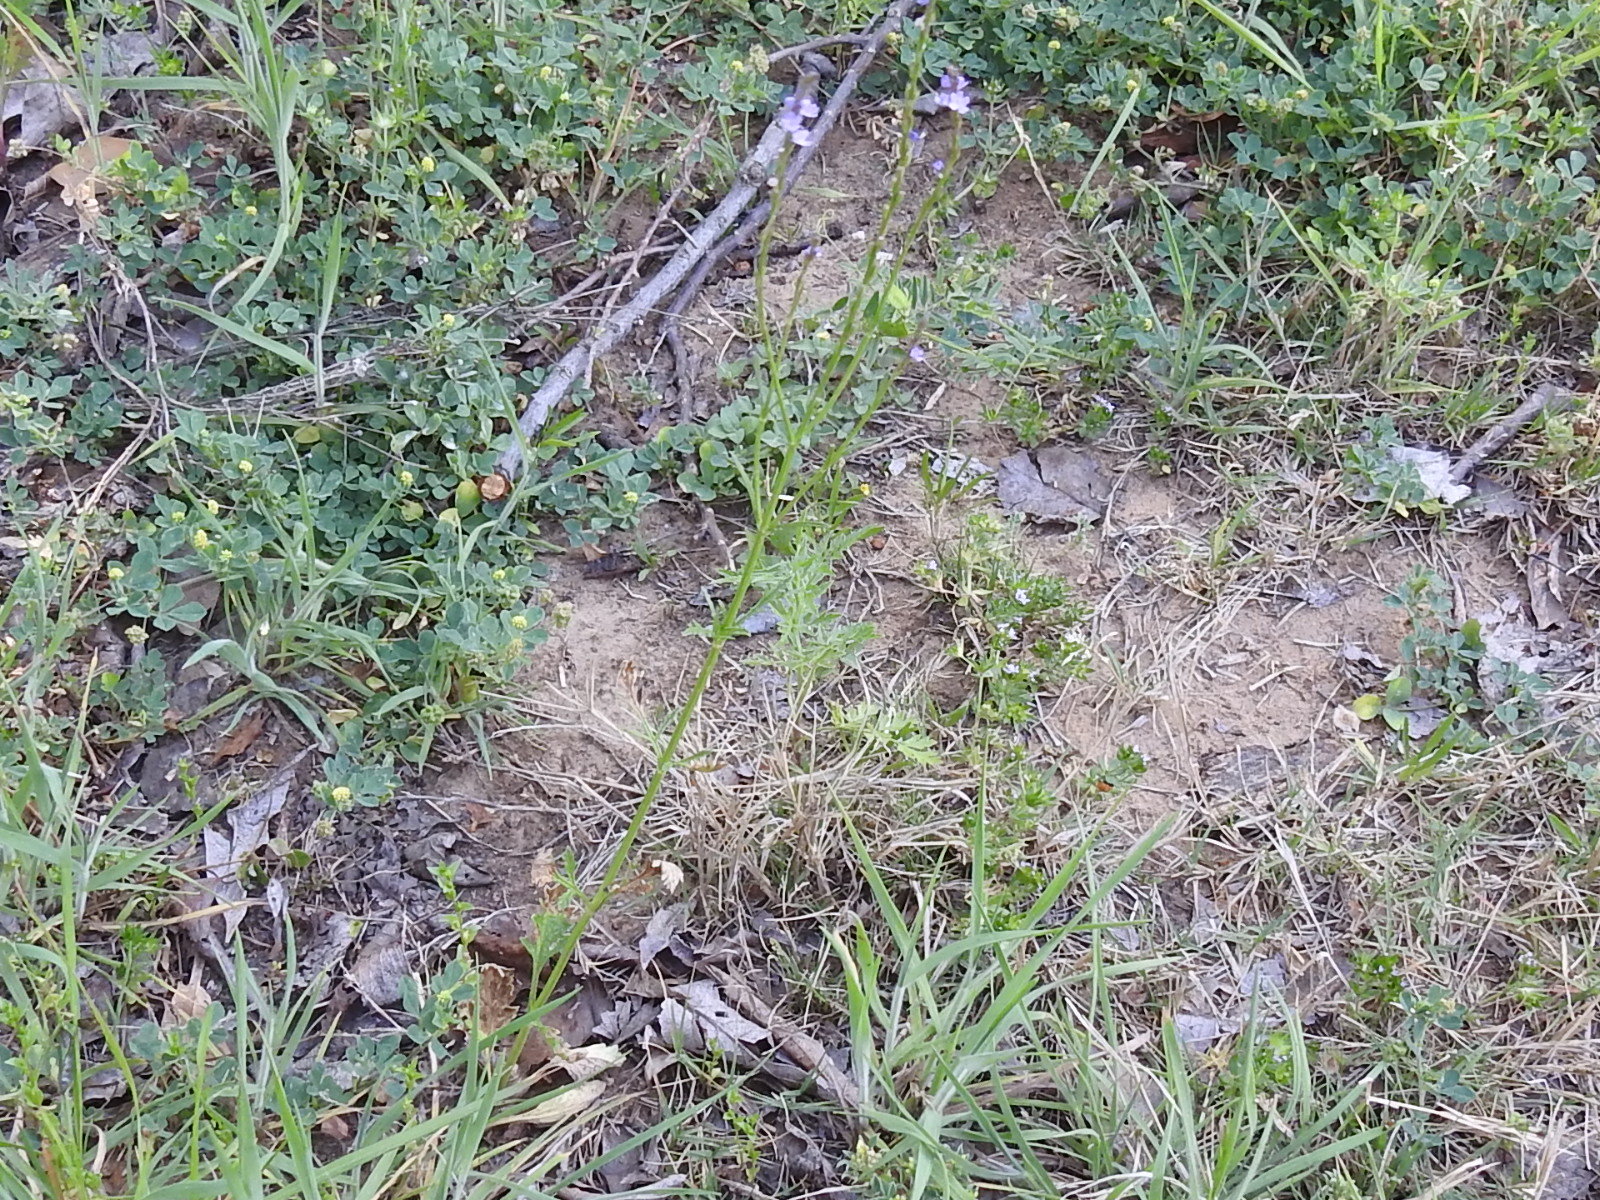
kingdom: Plantae
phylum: Tracheophyta
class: Magnoliopsida
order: Lamiales
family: Verbenaceae
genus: Verbena
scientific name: Verbena halei
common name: Texas vervain
